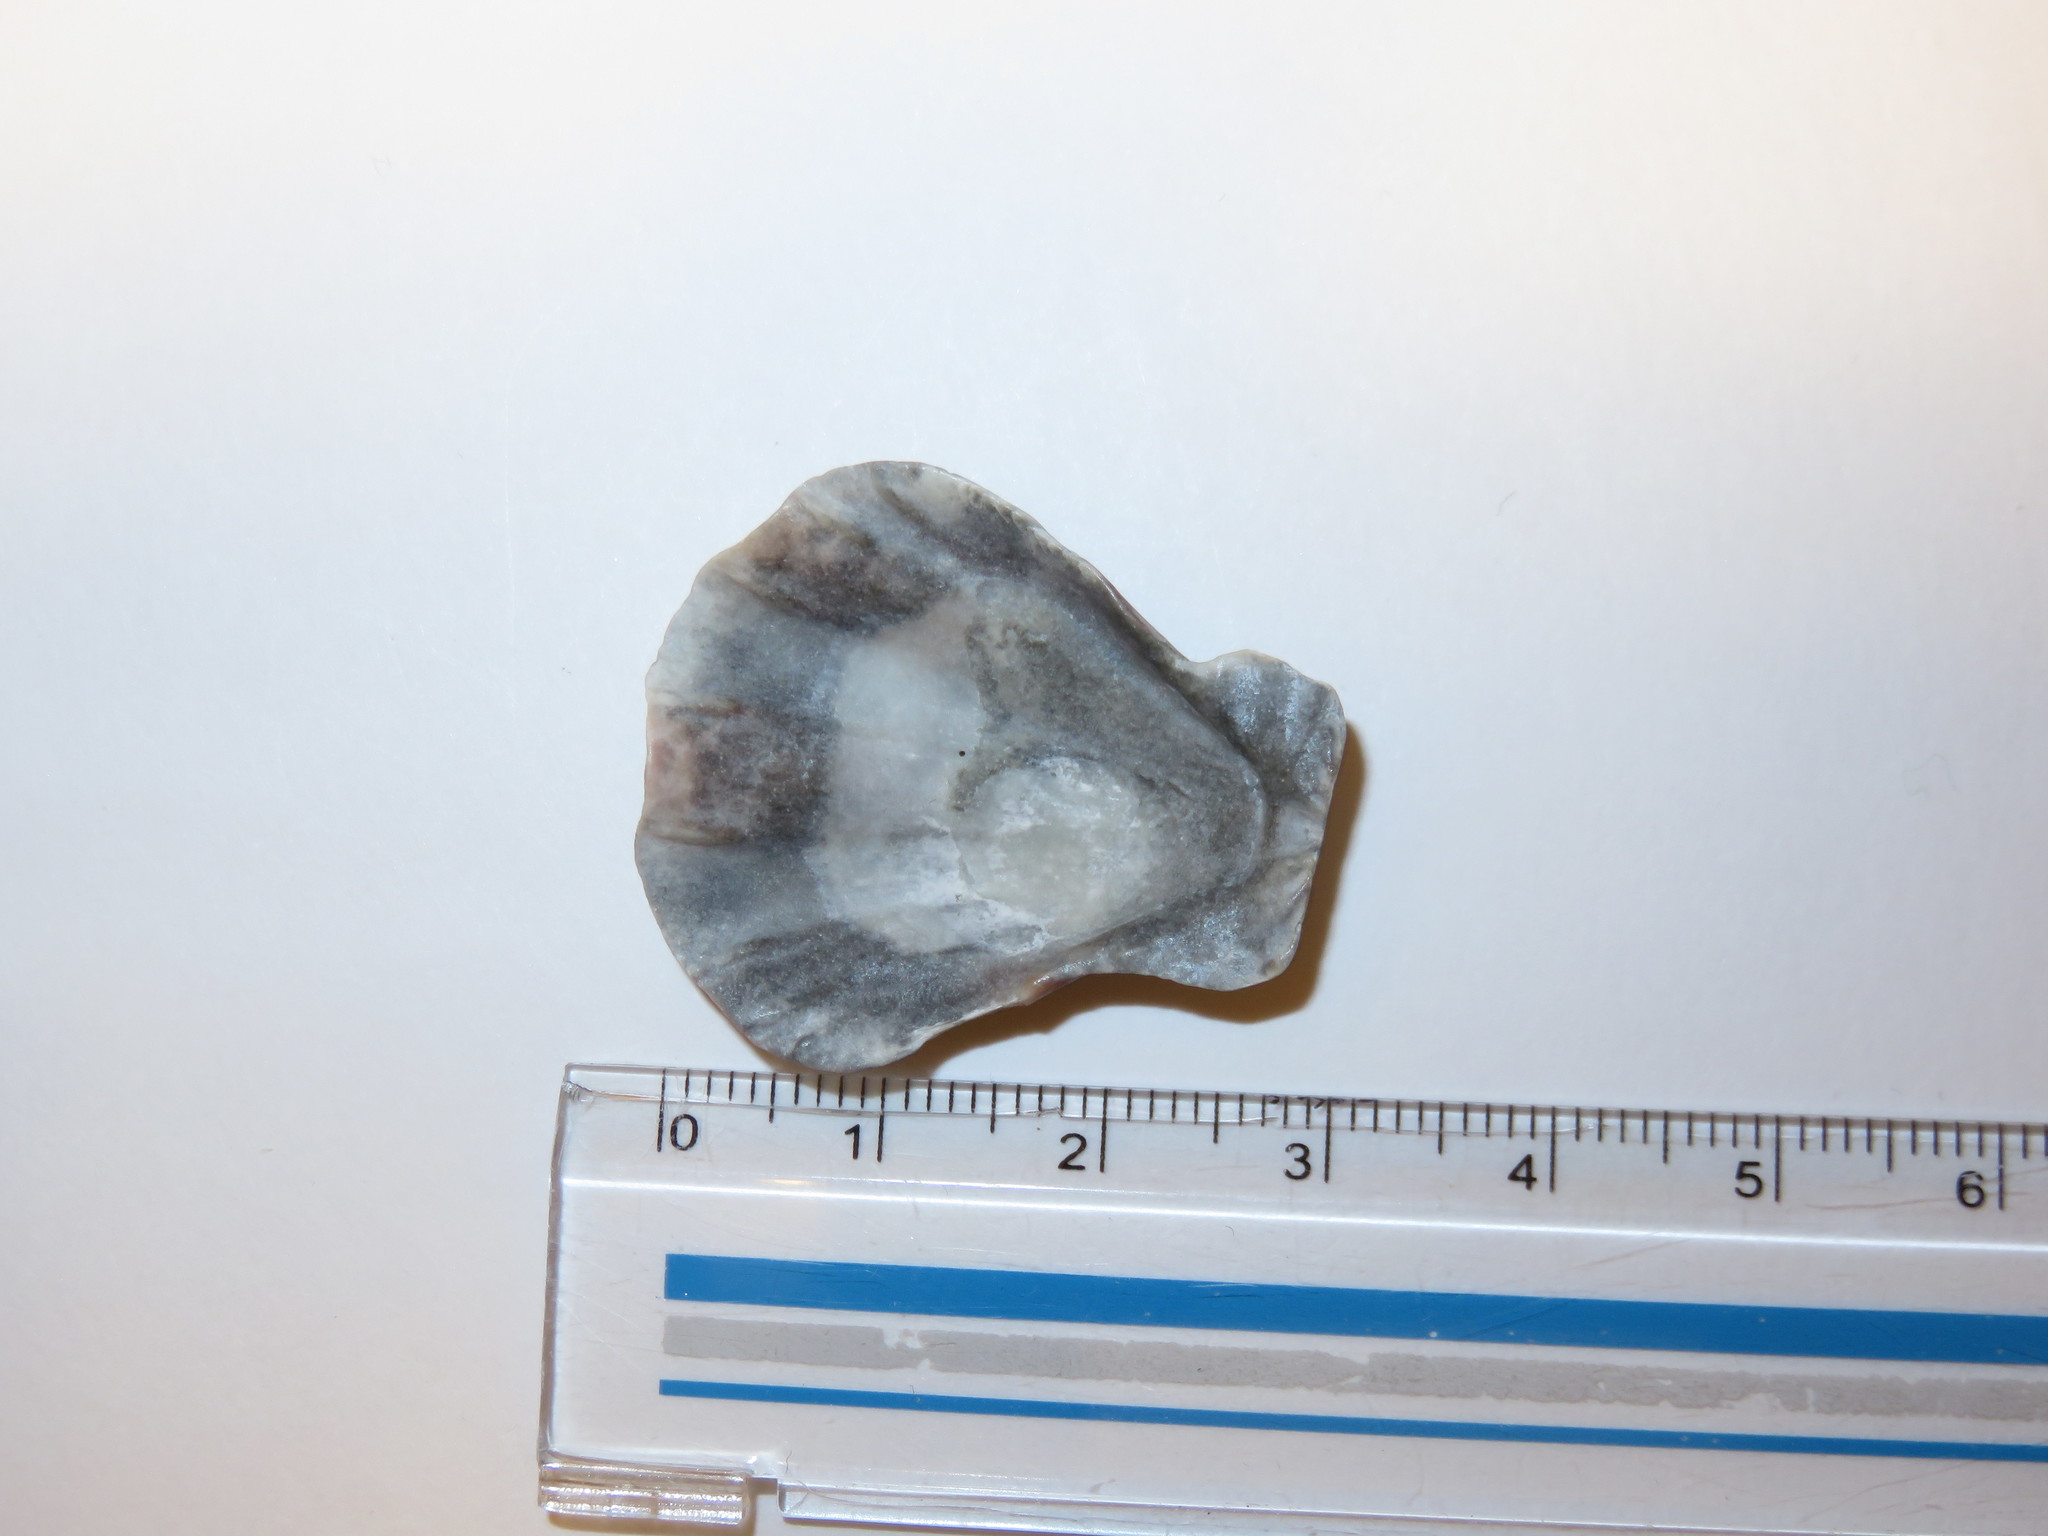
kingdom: Animalia
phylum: Mollusca
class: Bivalvia
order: Pectinida
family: Pectinidae
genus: Decatopecten
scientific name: Decatopecten plica
